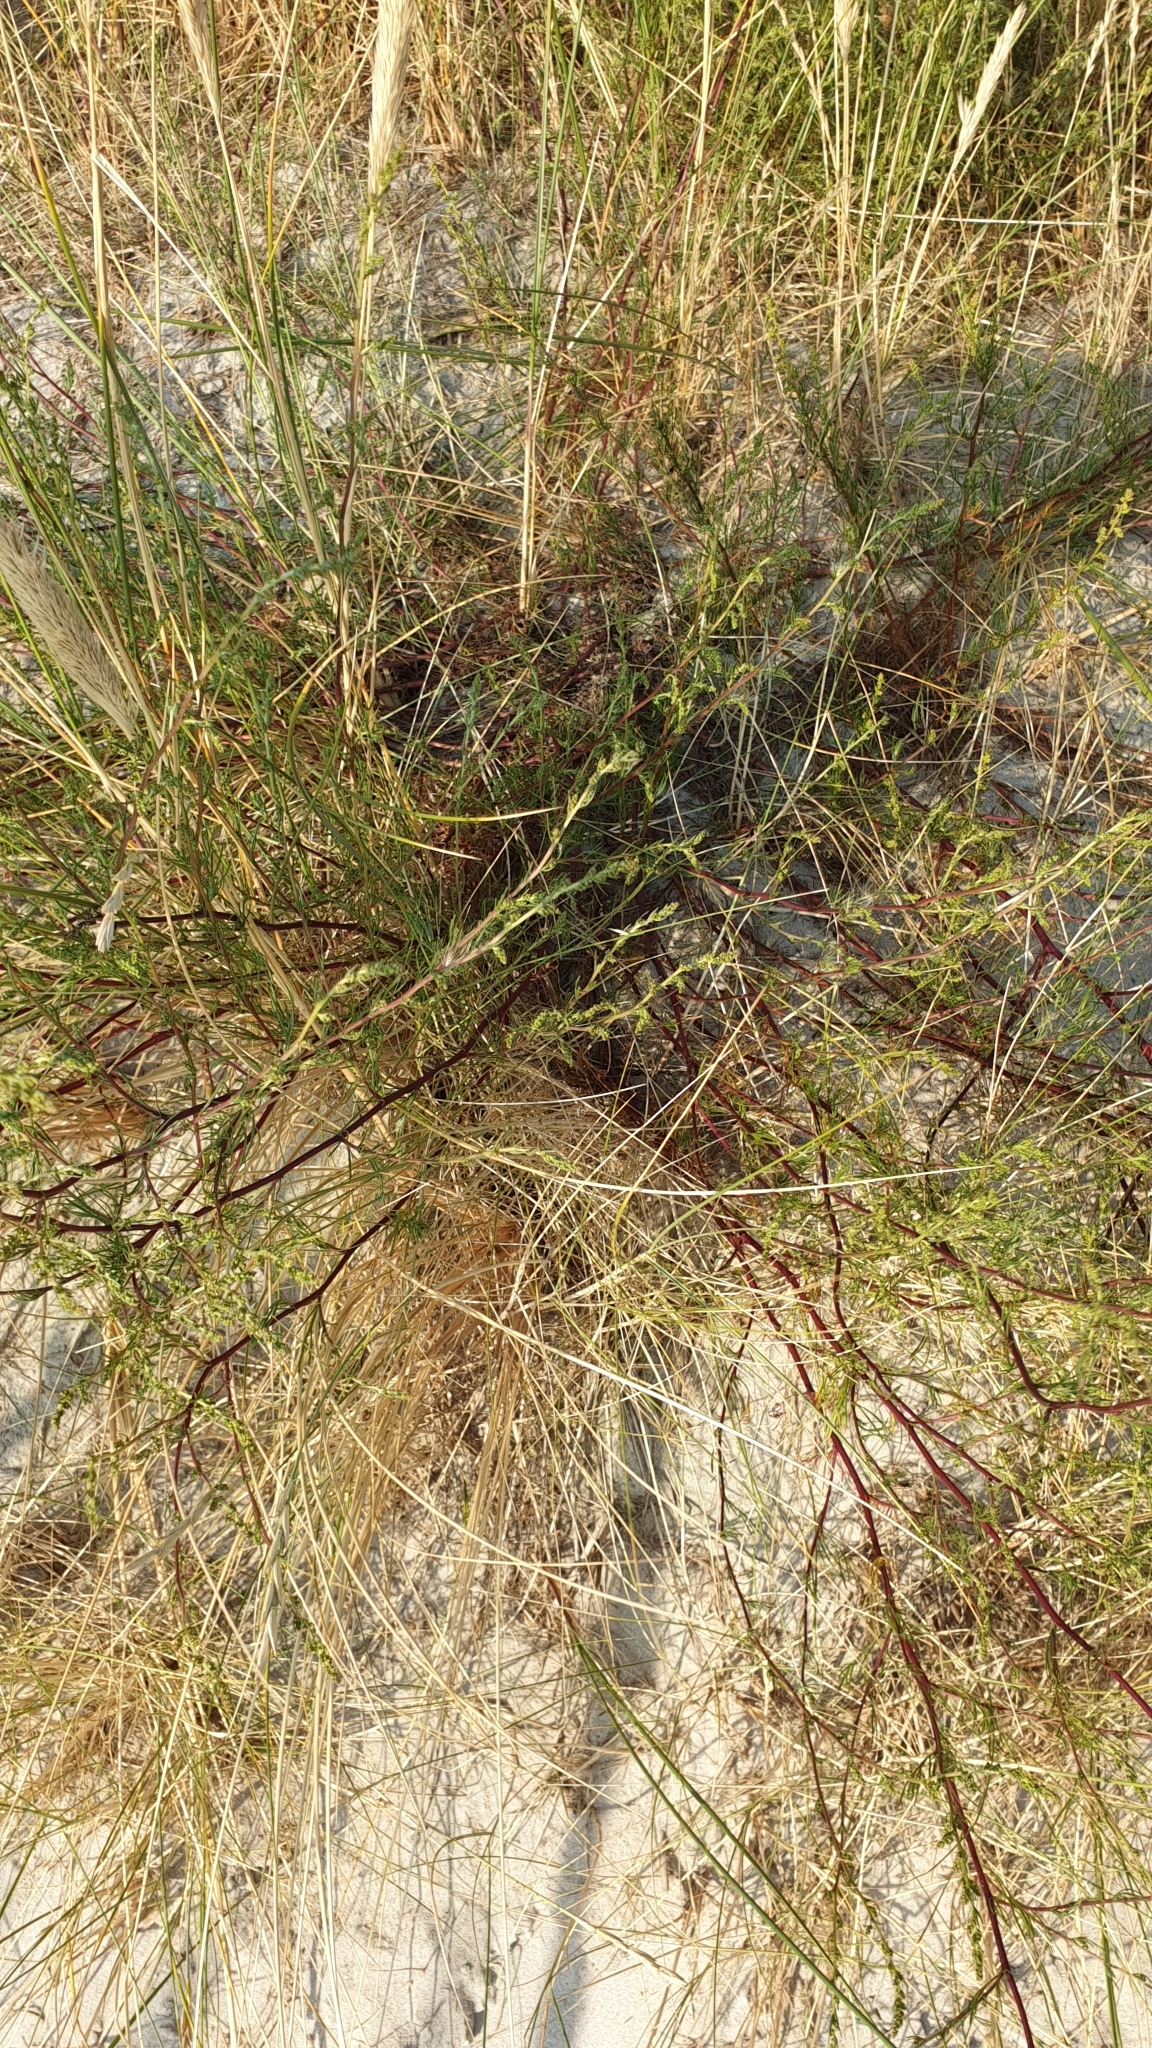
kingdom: Plantae
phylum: Tracheophyta
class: Magnoliopsida
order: Asterales
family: Asteraceae
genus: Artemisia
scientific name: Artemisia campestris
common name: Field wormwood
